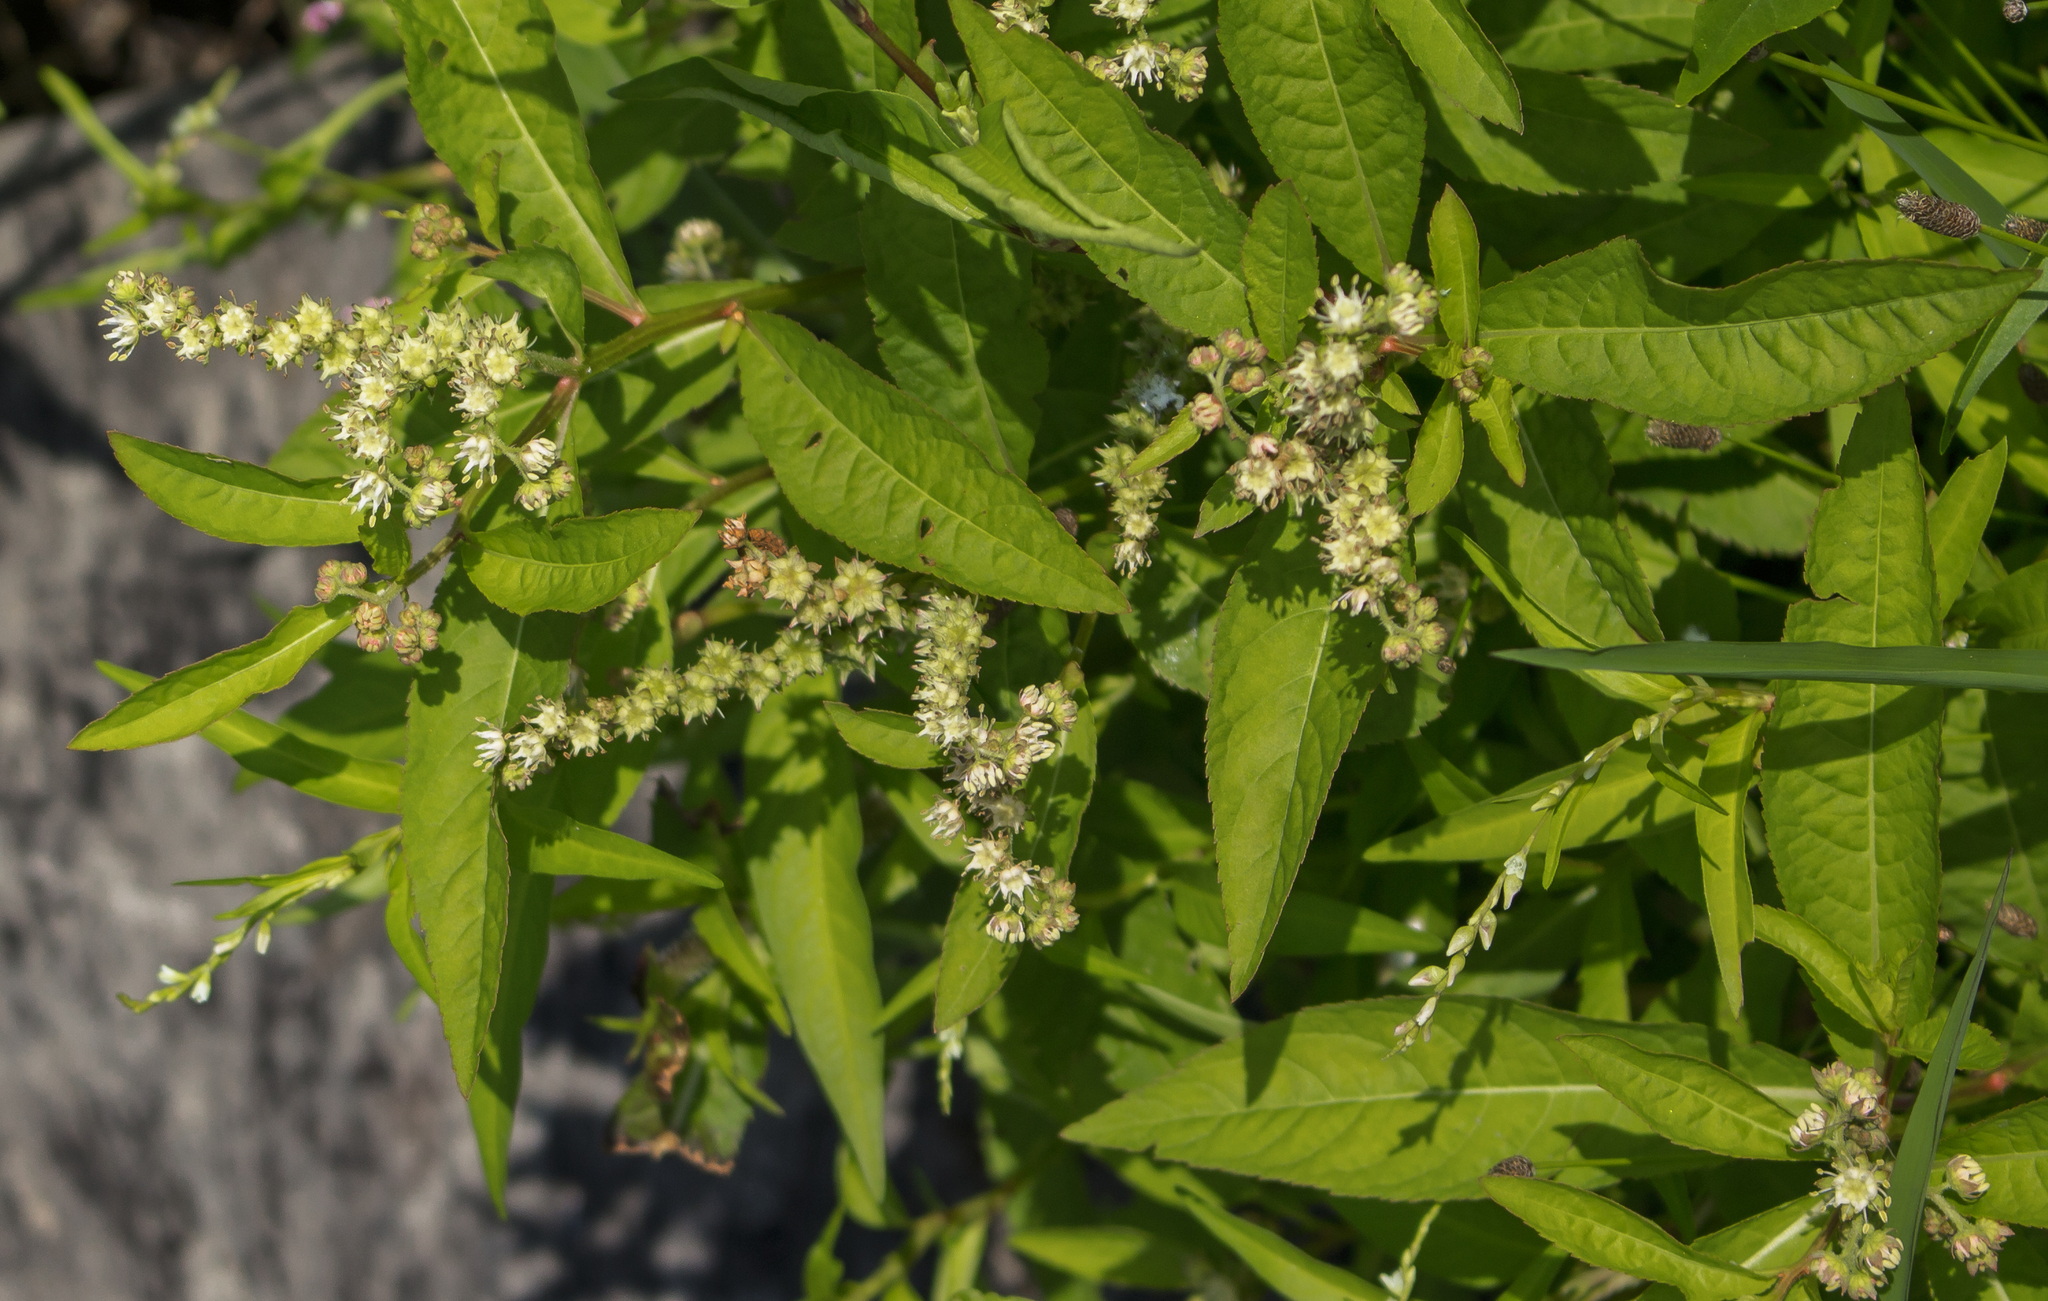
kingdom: Plantae
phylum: Tracheophyta
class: Magnoliopsida
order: Saxifragales
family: Penthoraceae
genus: Penthorum
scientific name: Penthorum sedoides
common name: Ditch stonecrop
